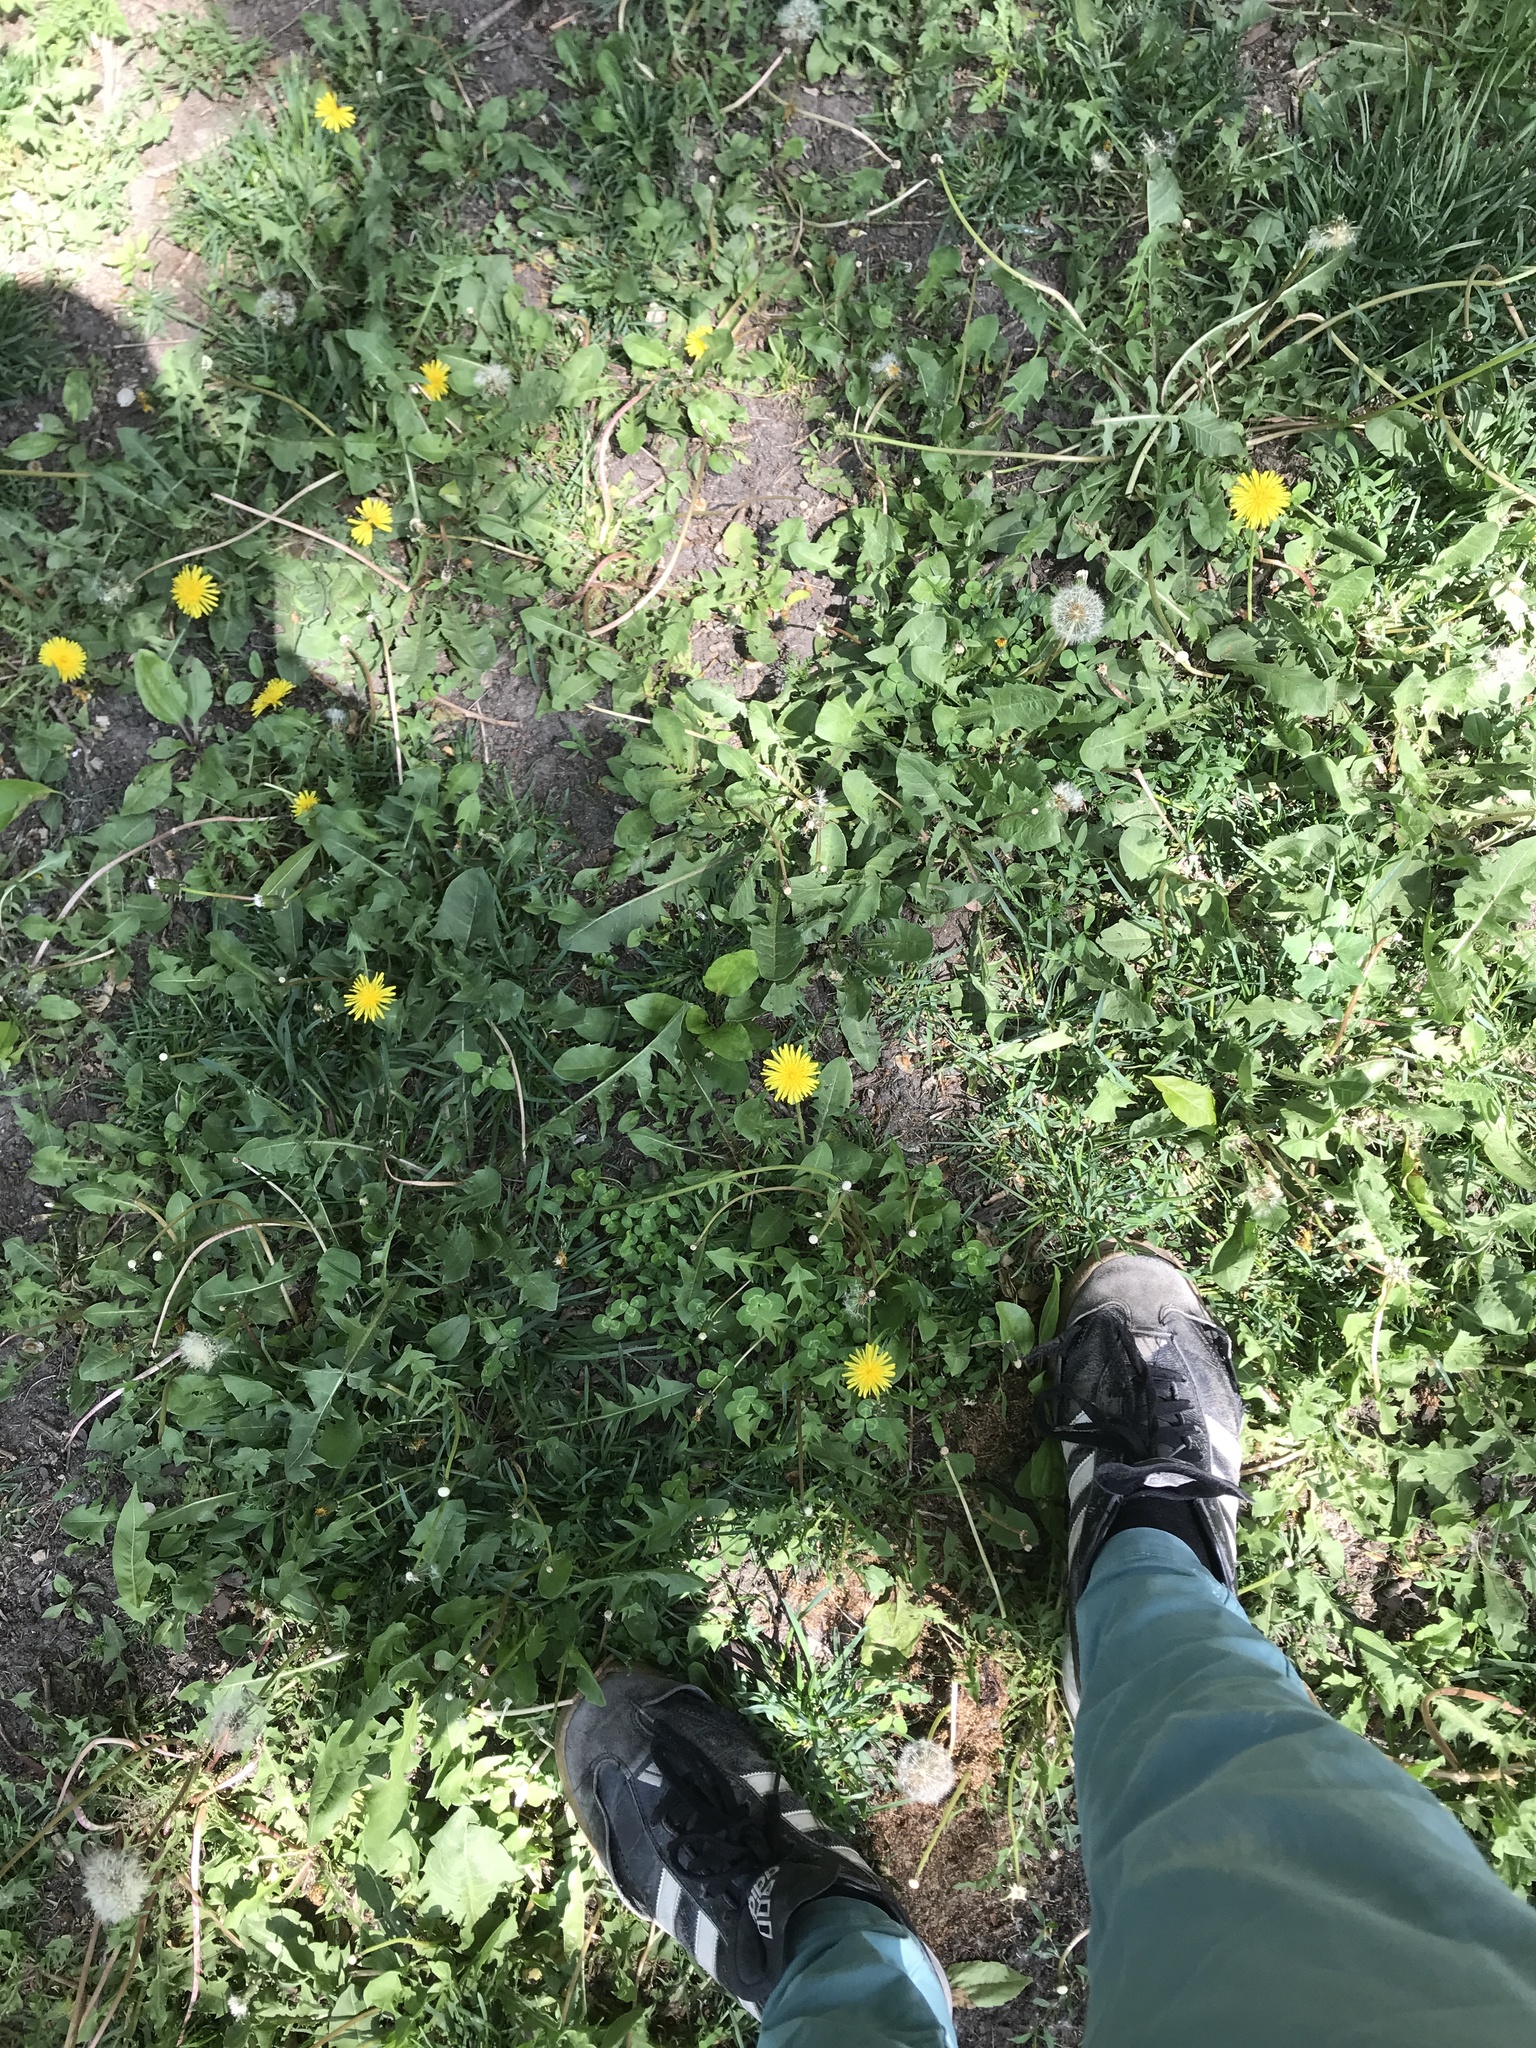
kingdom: Plantae
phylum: Tracheophyta
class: Magnoliopsida
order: Asterales
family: Asteraceae
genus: Taraxacum
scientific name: Taraxacum officinale
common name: Common dandelion
